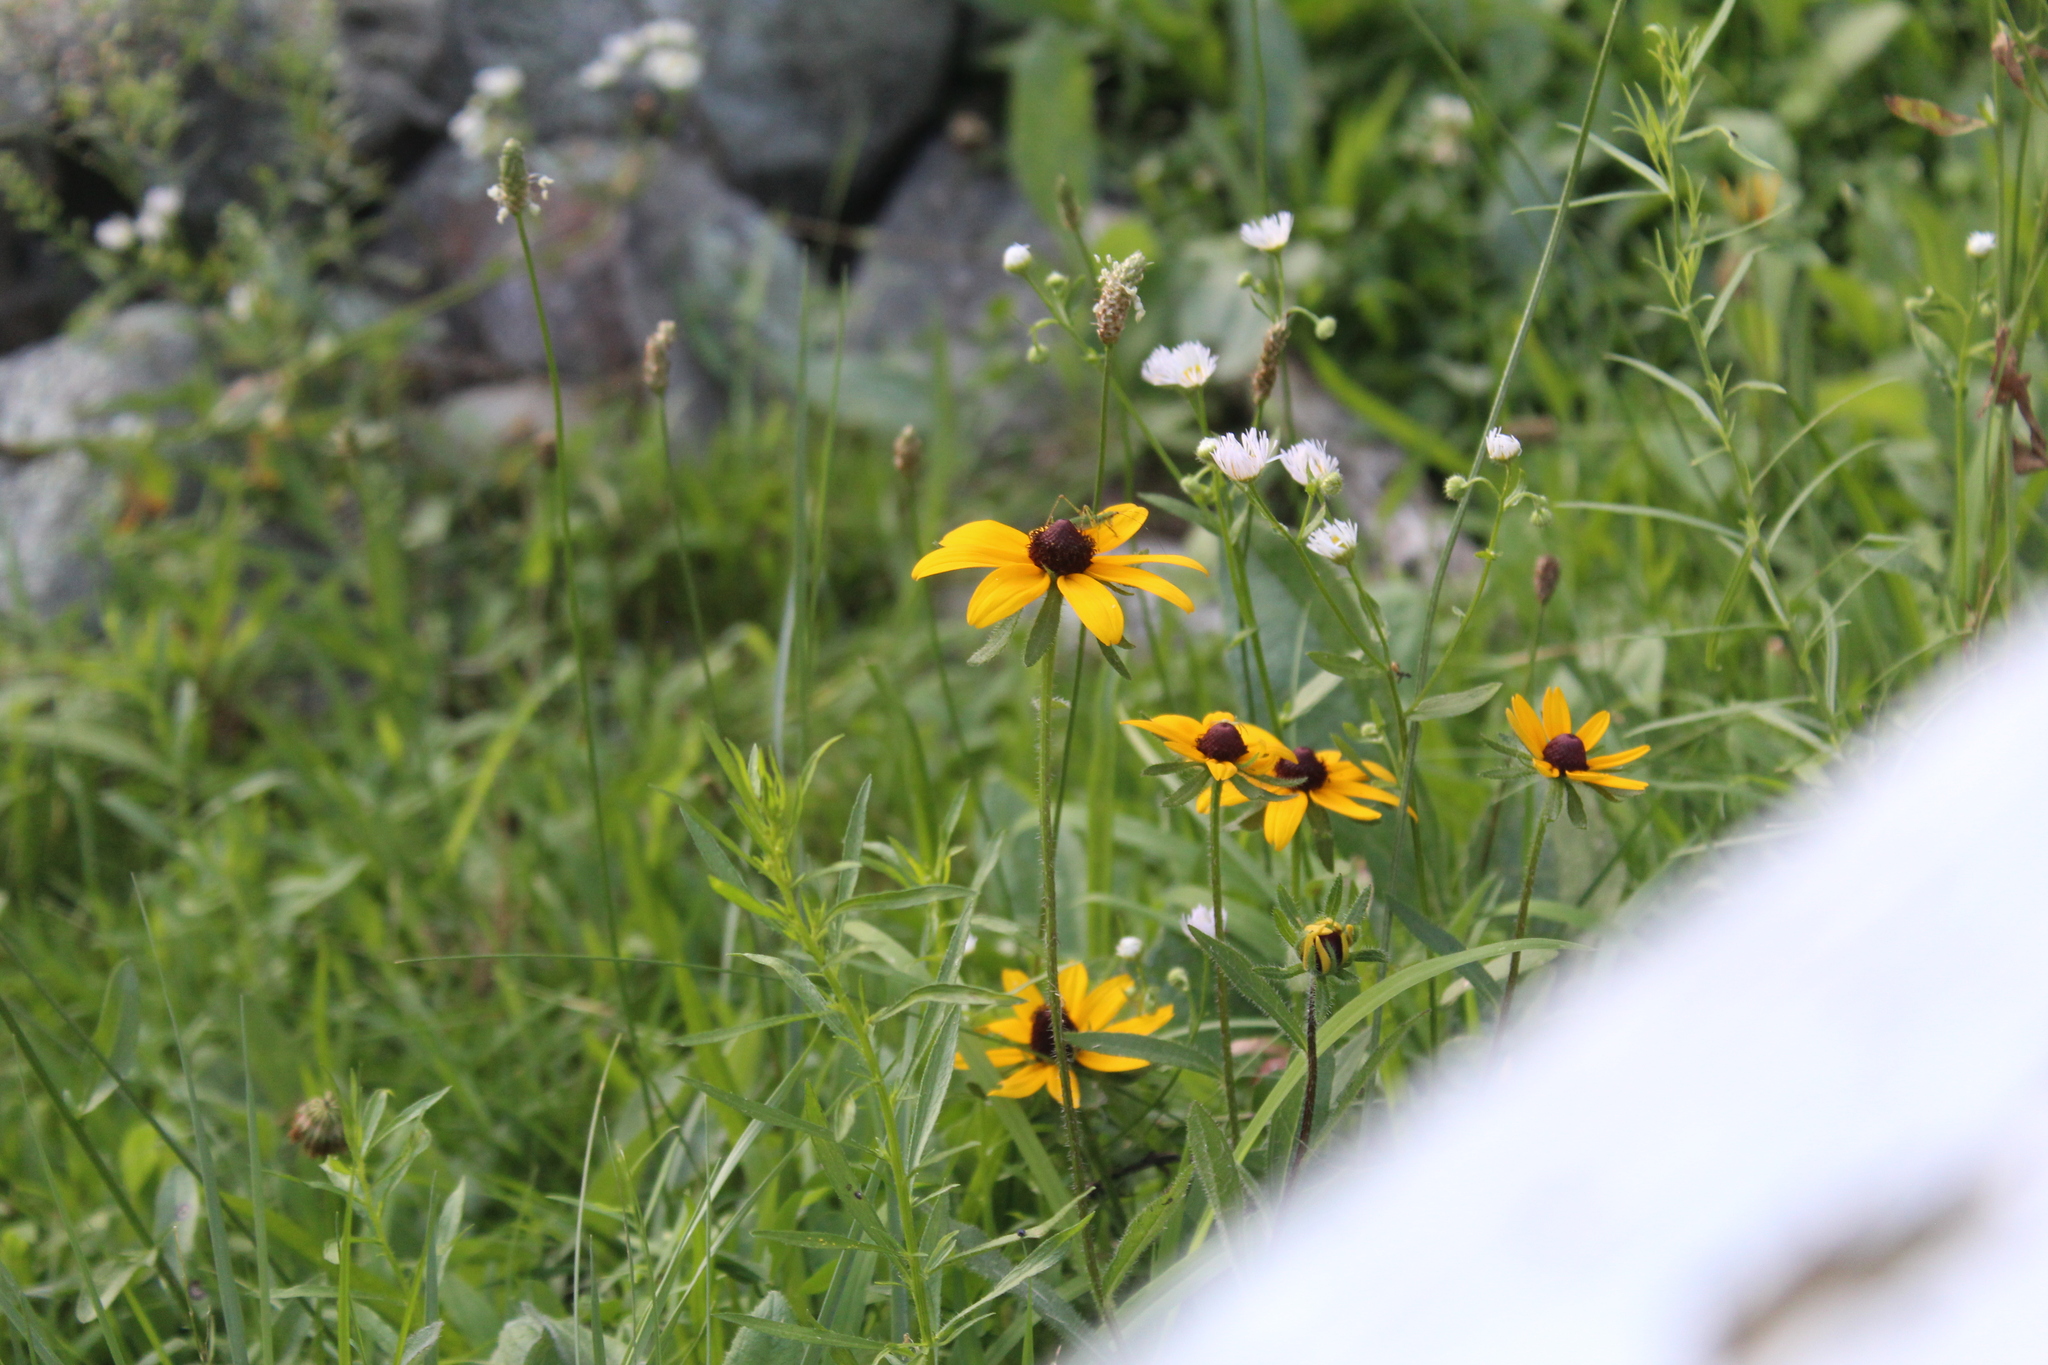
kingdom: Plantae
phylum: Tracheophyta
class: Magnoliopsida
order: Asterales
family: Asteraceae
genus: Rudbeckia
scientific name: Rudbeckia hirta
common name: Black-eyed-susan
